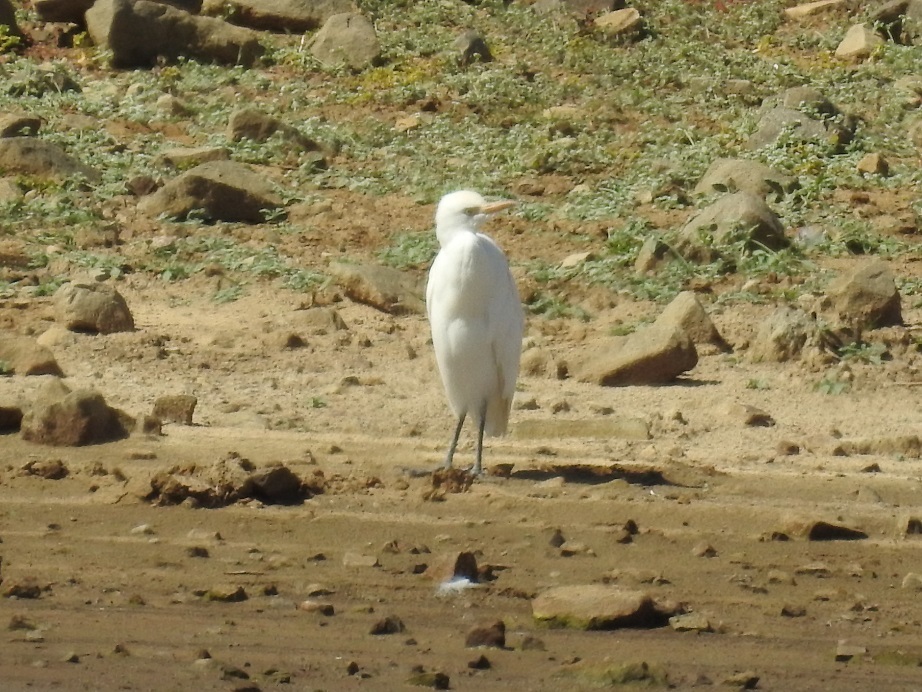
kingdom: Animalia
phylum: Chordata
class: Aves
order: Pelecaniformes
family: Ardeidae
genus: Bubulcus
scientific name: Bubulcus ibis
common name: Cattle egret
